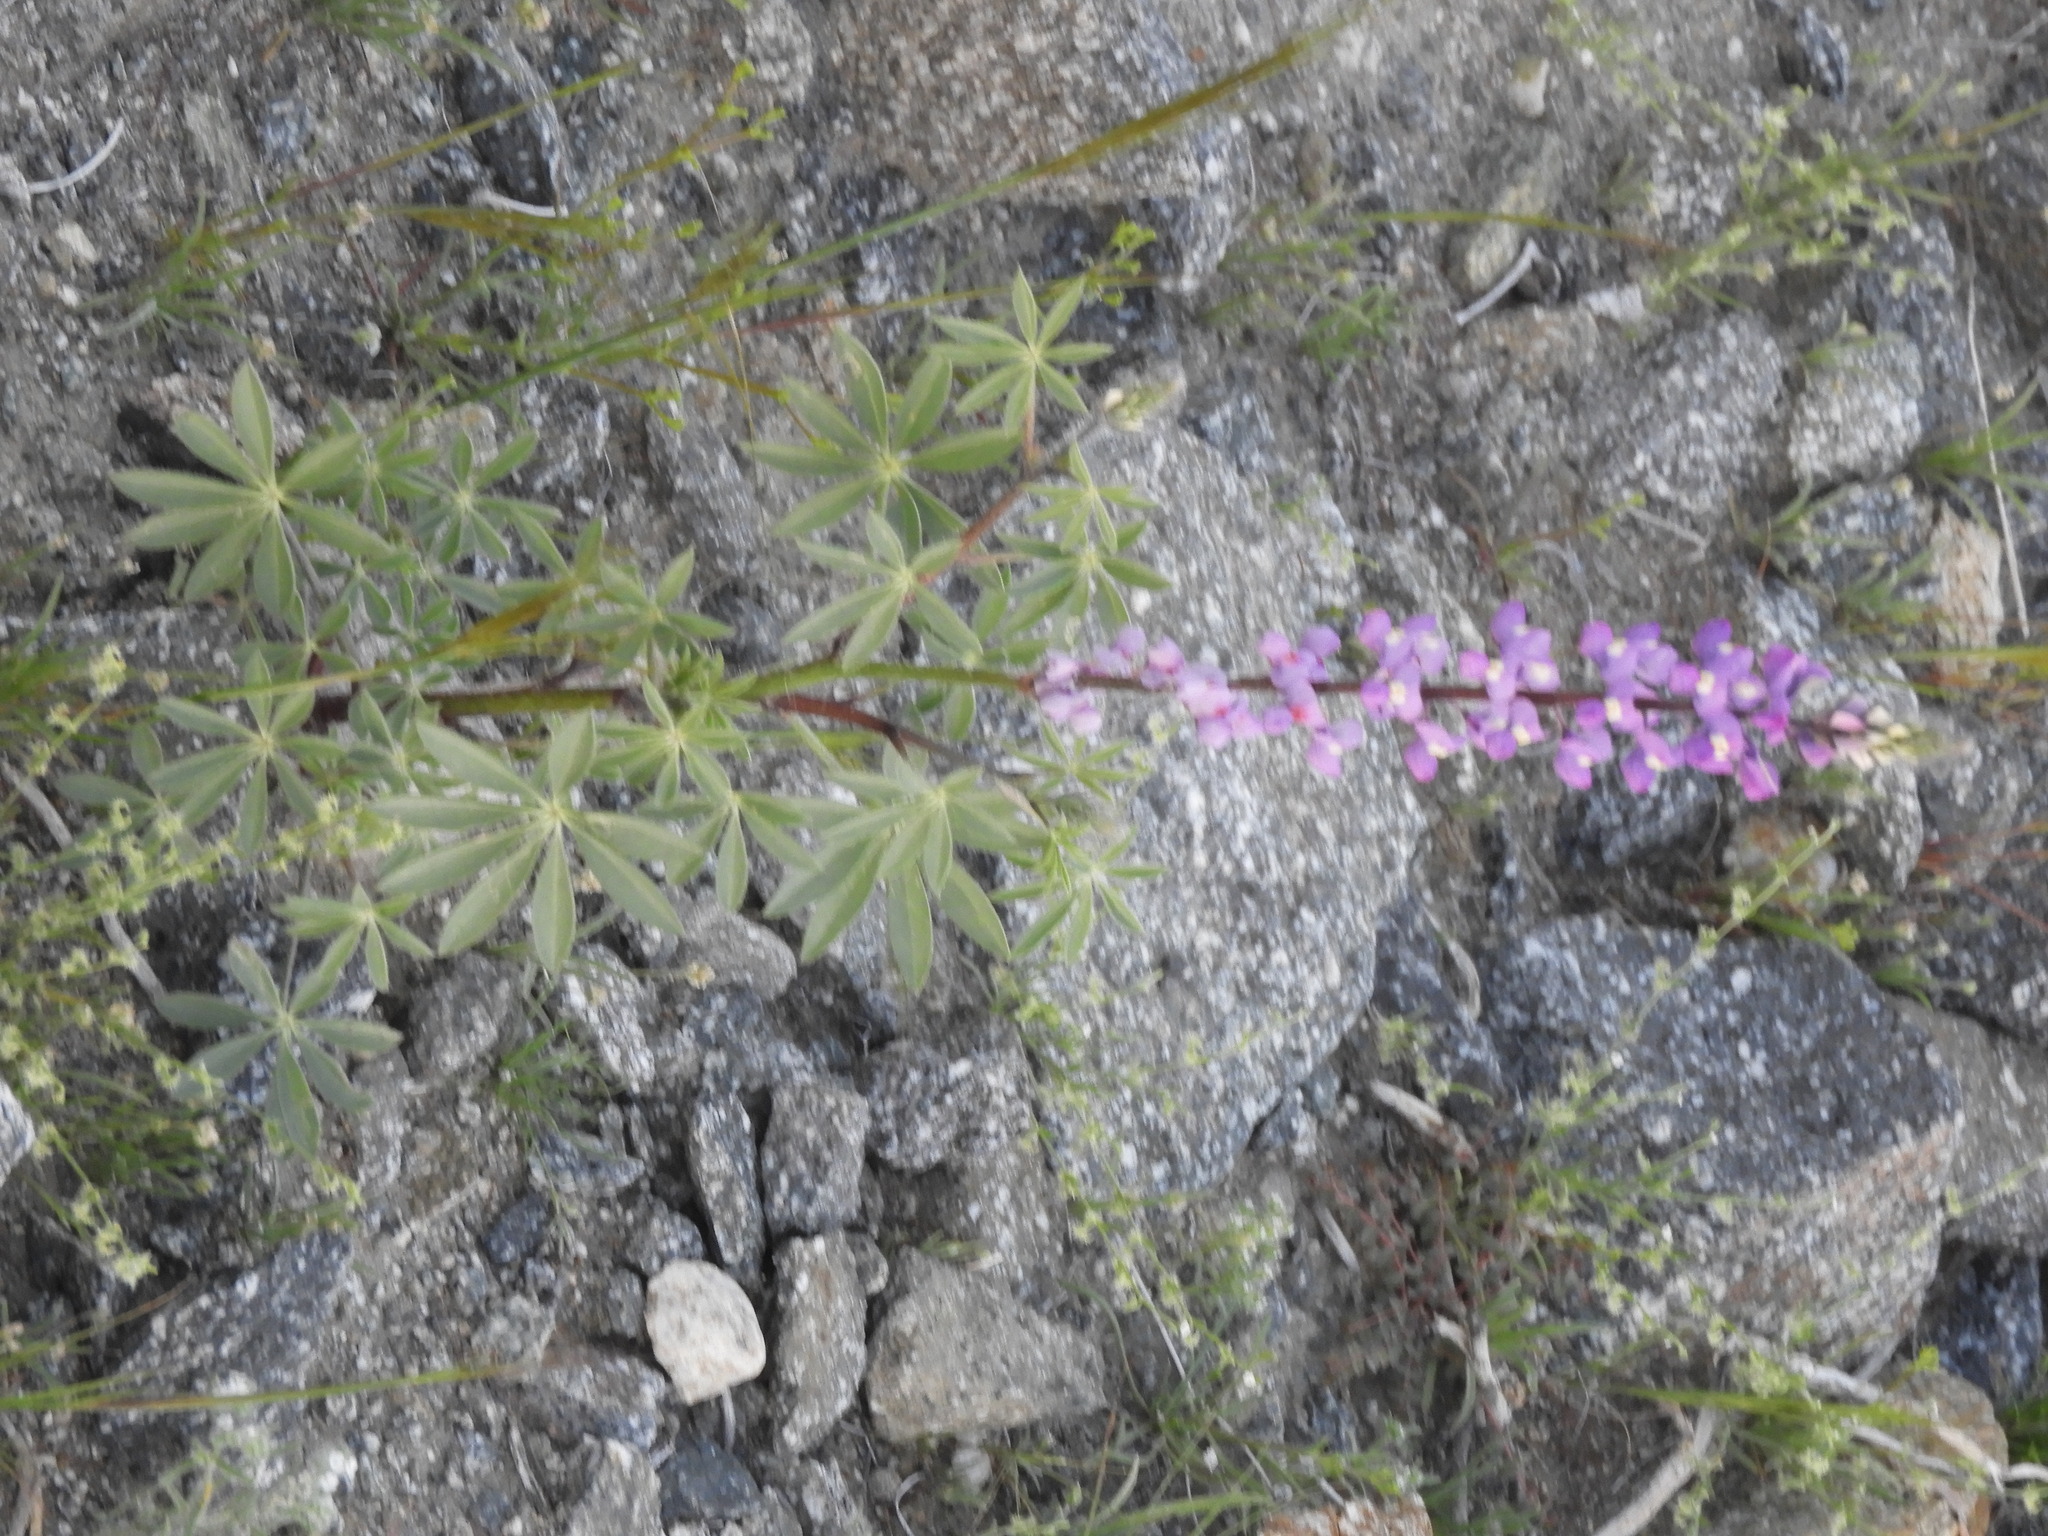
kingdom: Plantae
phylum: Tracheophyta
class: Magnoliopsida
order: Fabales
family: Fabaceae
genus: Lupinus
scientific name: Lupinus arizonicus
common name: Arizona lupine
